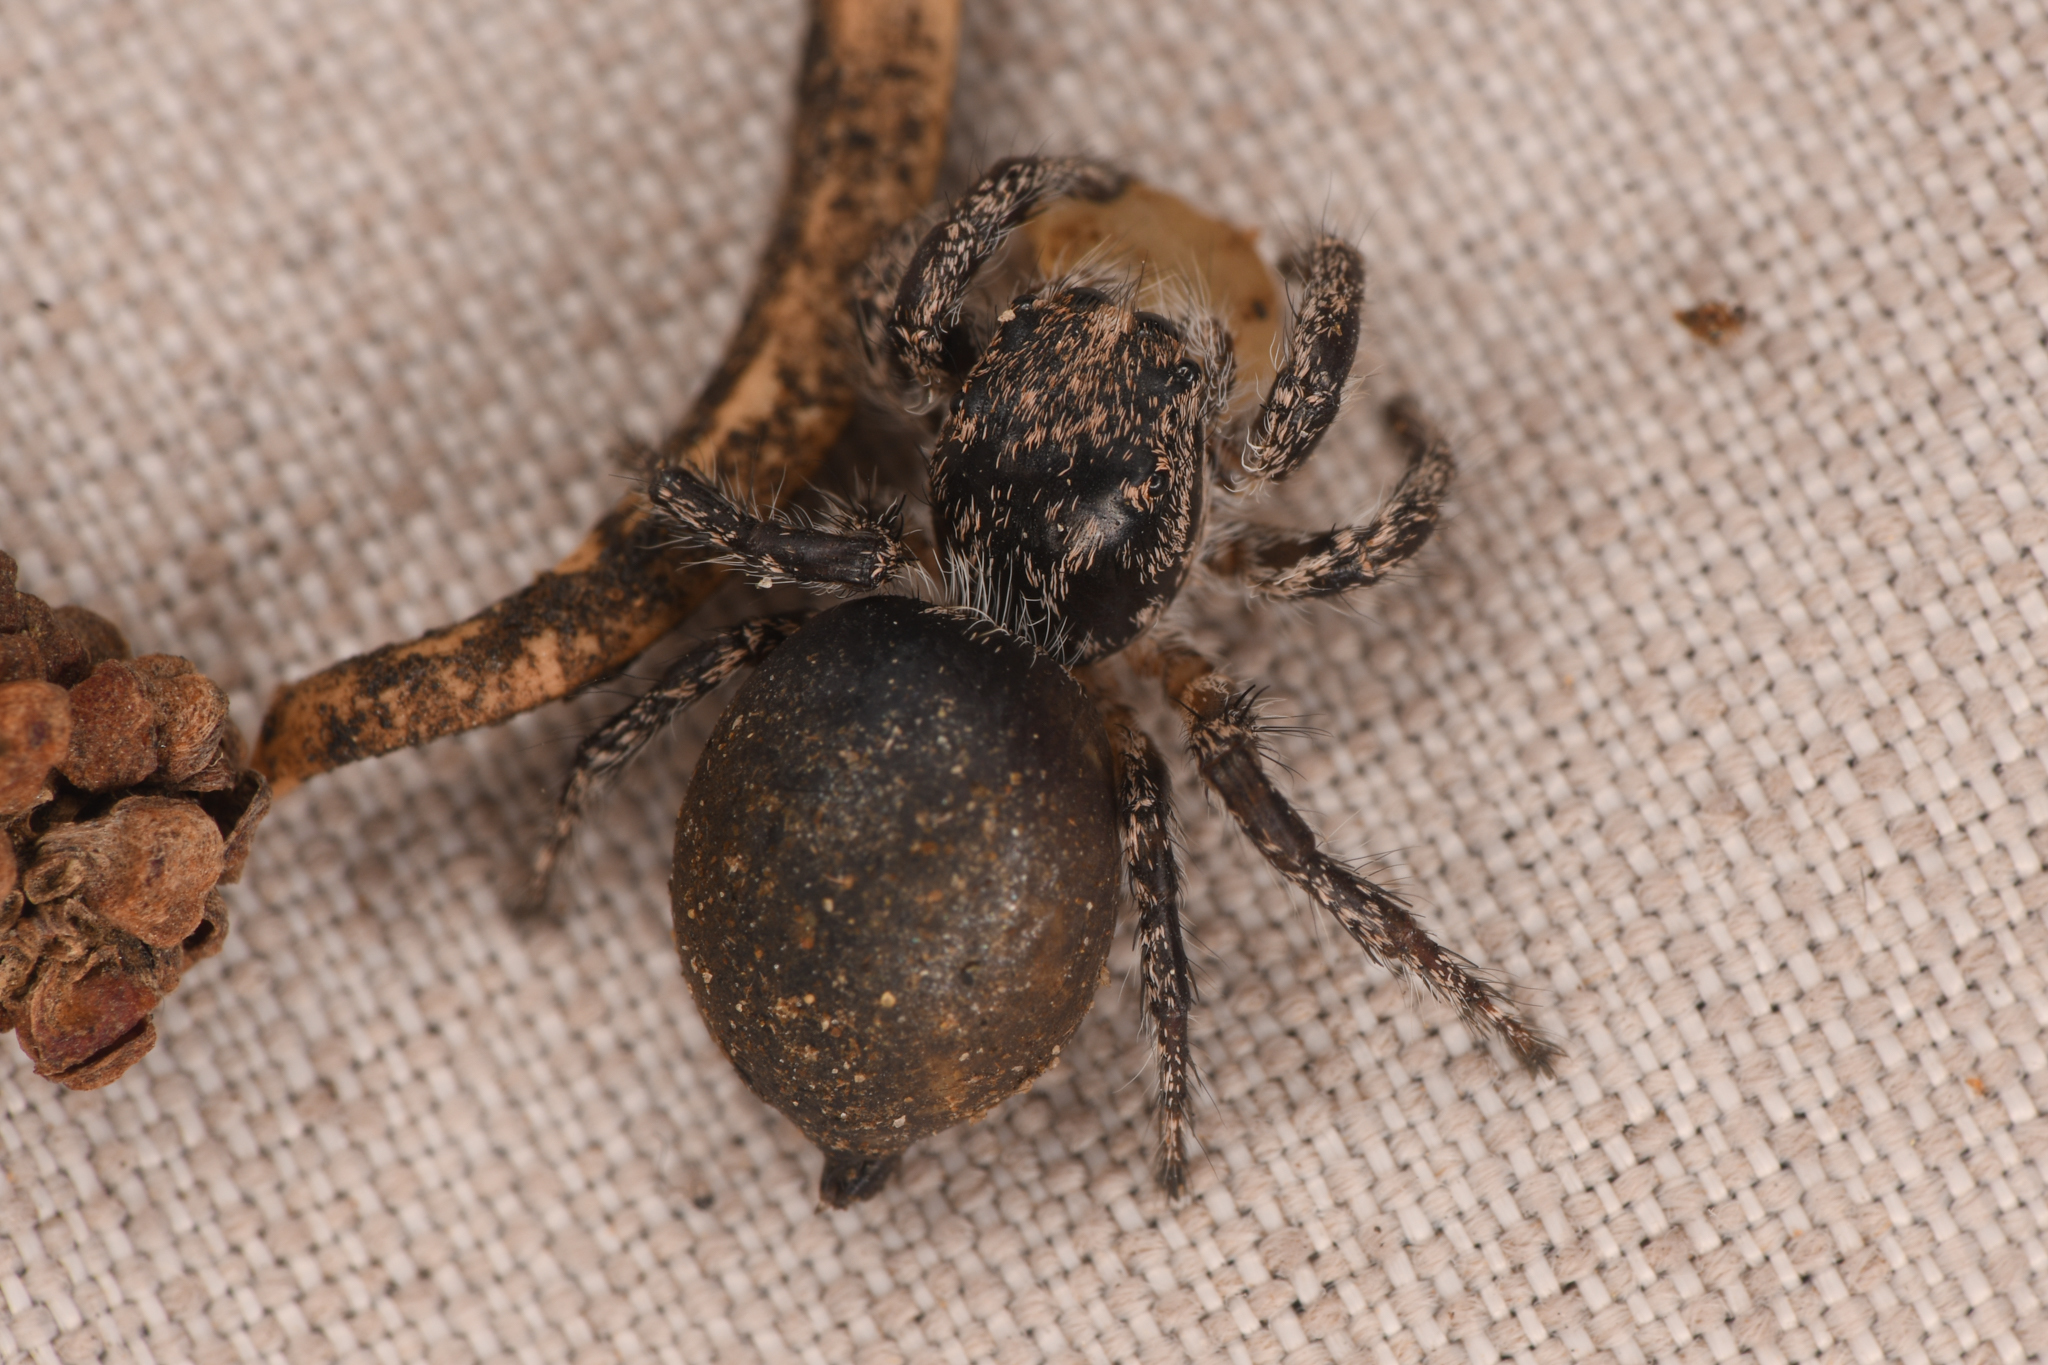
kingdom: Animalia
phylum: Arthropoda
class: Arachnida
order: Araneae
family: Salticidae
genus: Habronattus
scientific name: Habronattus hirsutus
